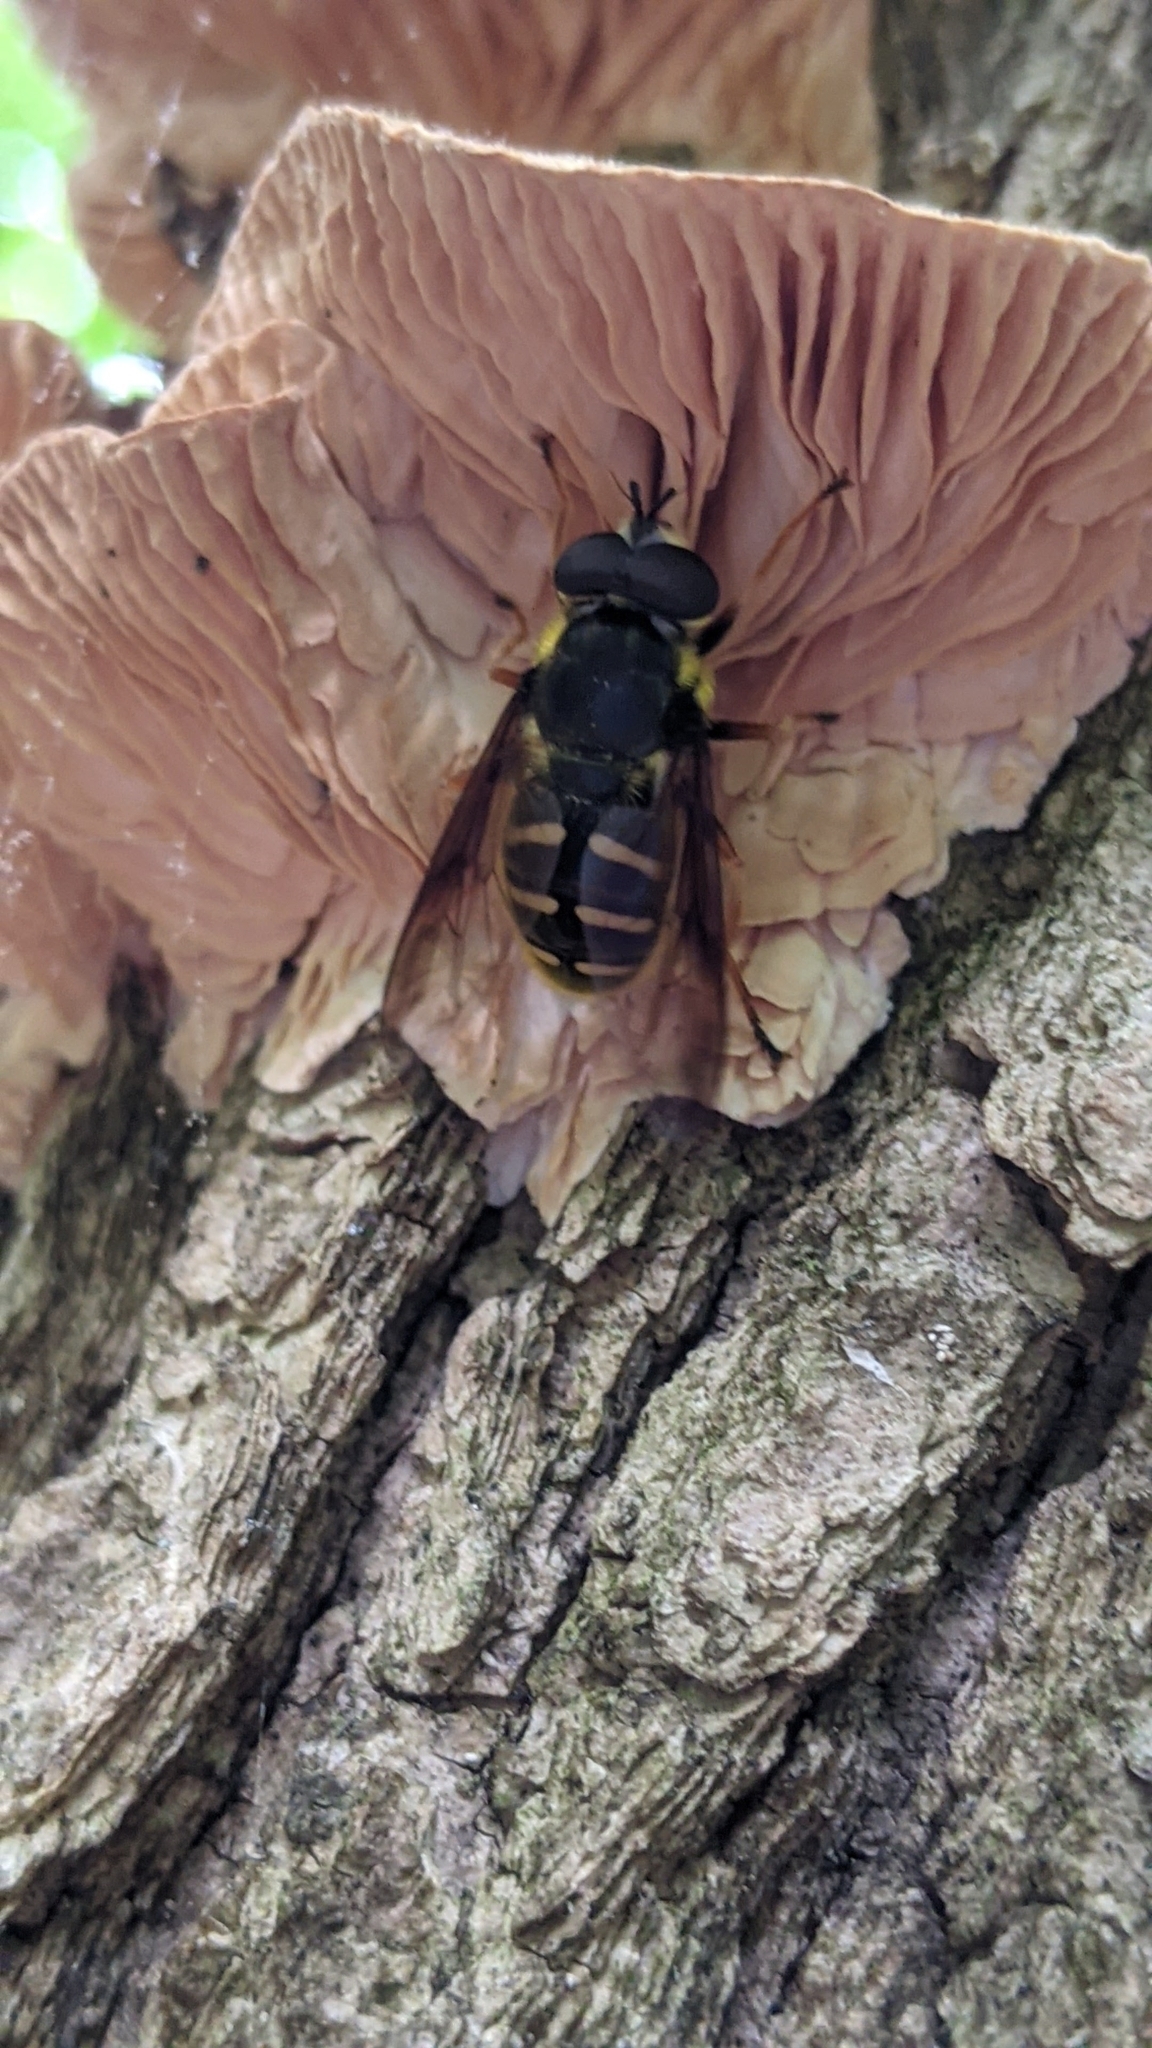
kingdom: Animalia
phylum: Arthropoda
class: Insecta
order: Diptera
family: Syrphidae
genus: Sericomyia
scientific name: Sericomyia chrysotoxoides
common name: Oblique-banded pond fly
